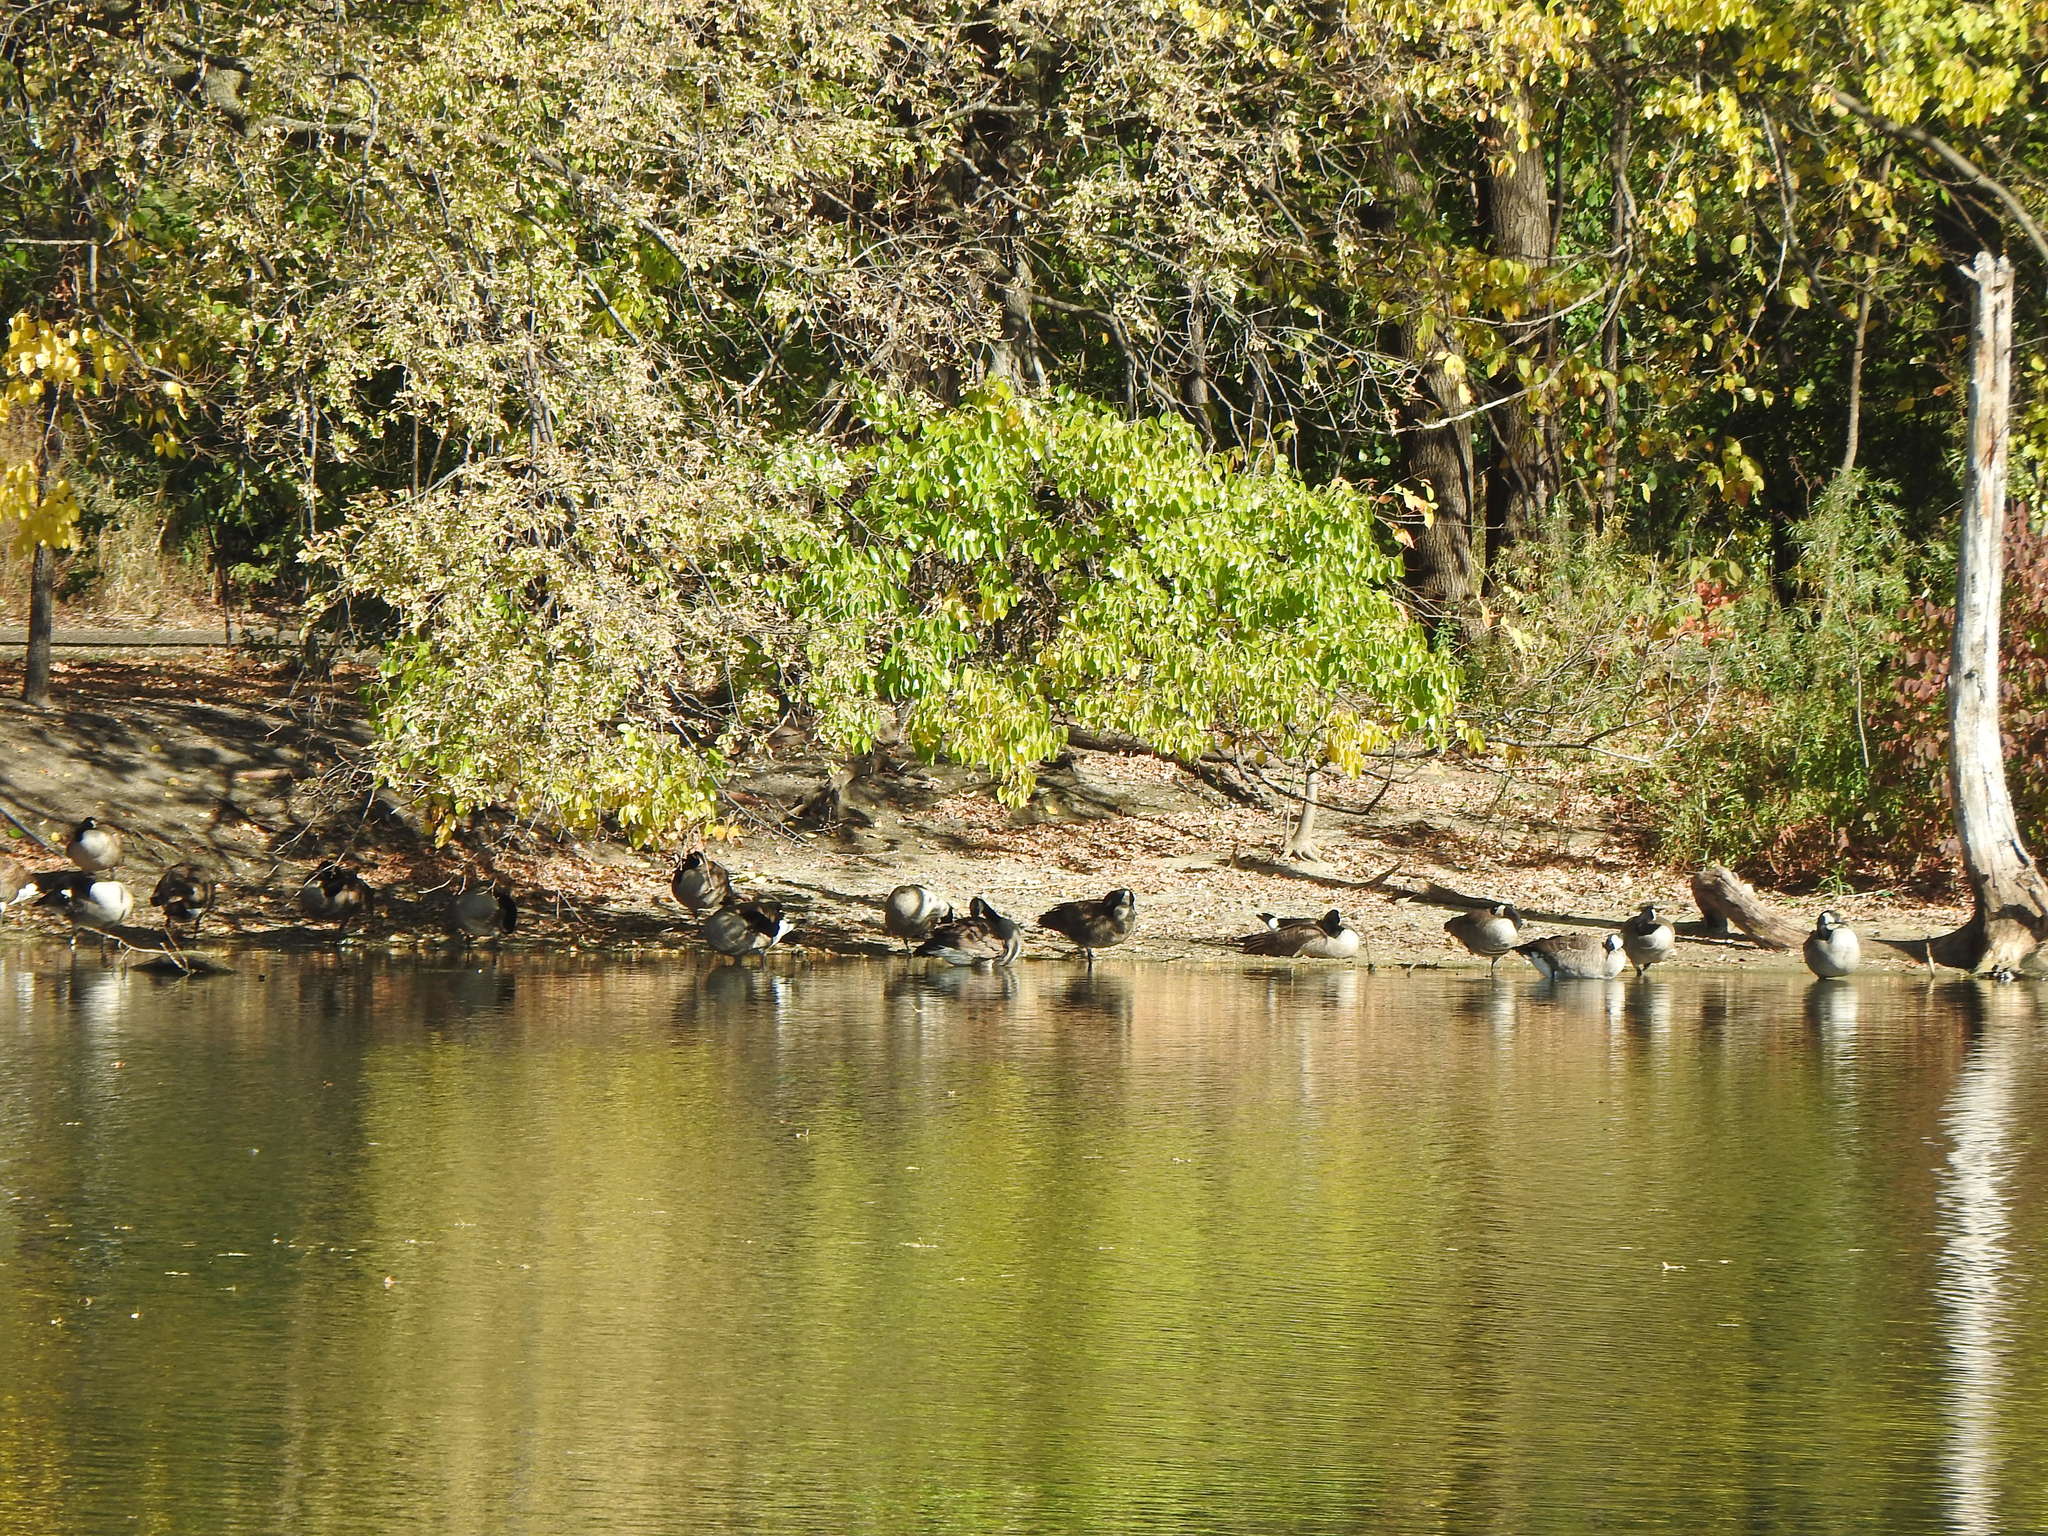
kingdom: Animalia
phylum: Chordata
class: Aves
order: Anseriformes
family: Anatidae
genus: Branta
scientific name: Branta canadensis
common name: Canada goose
